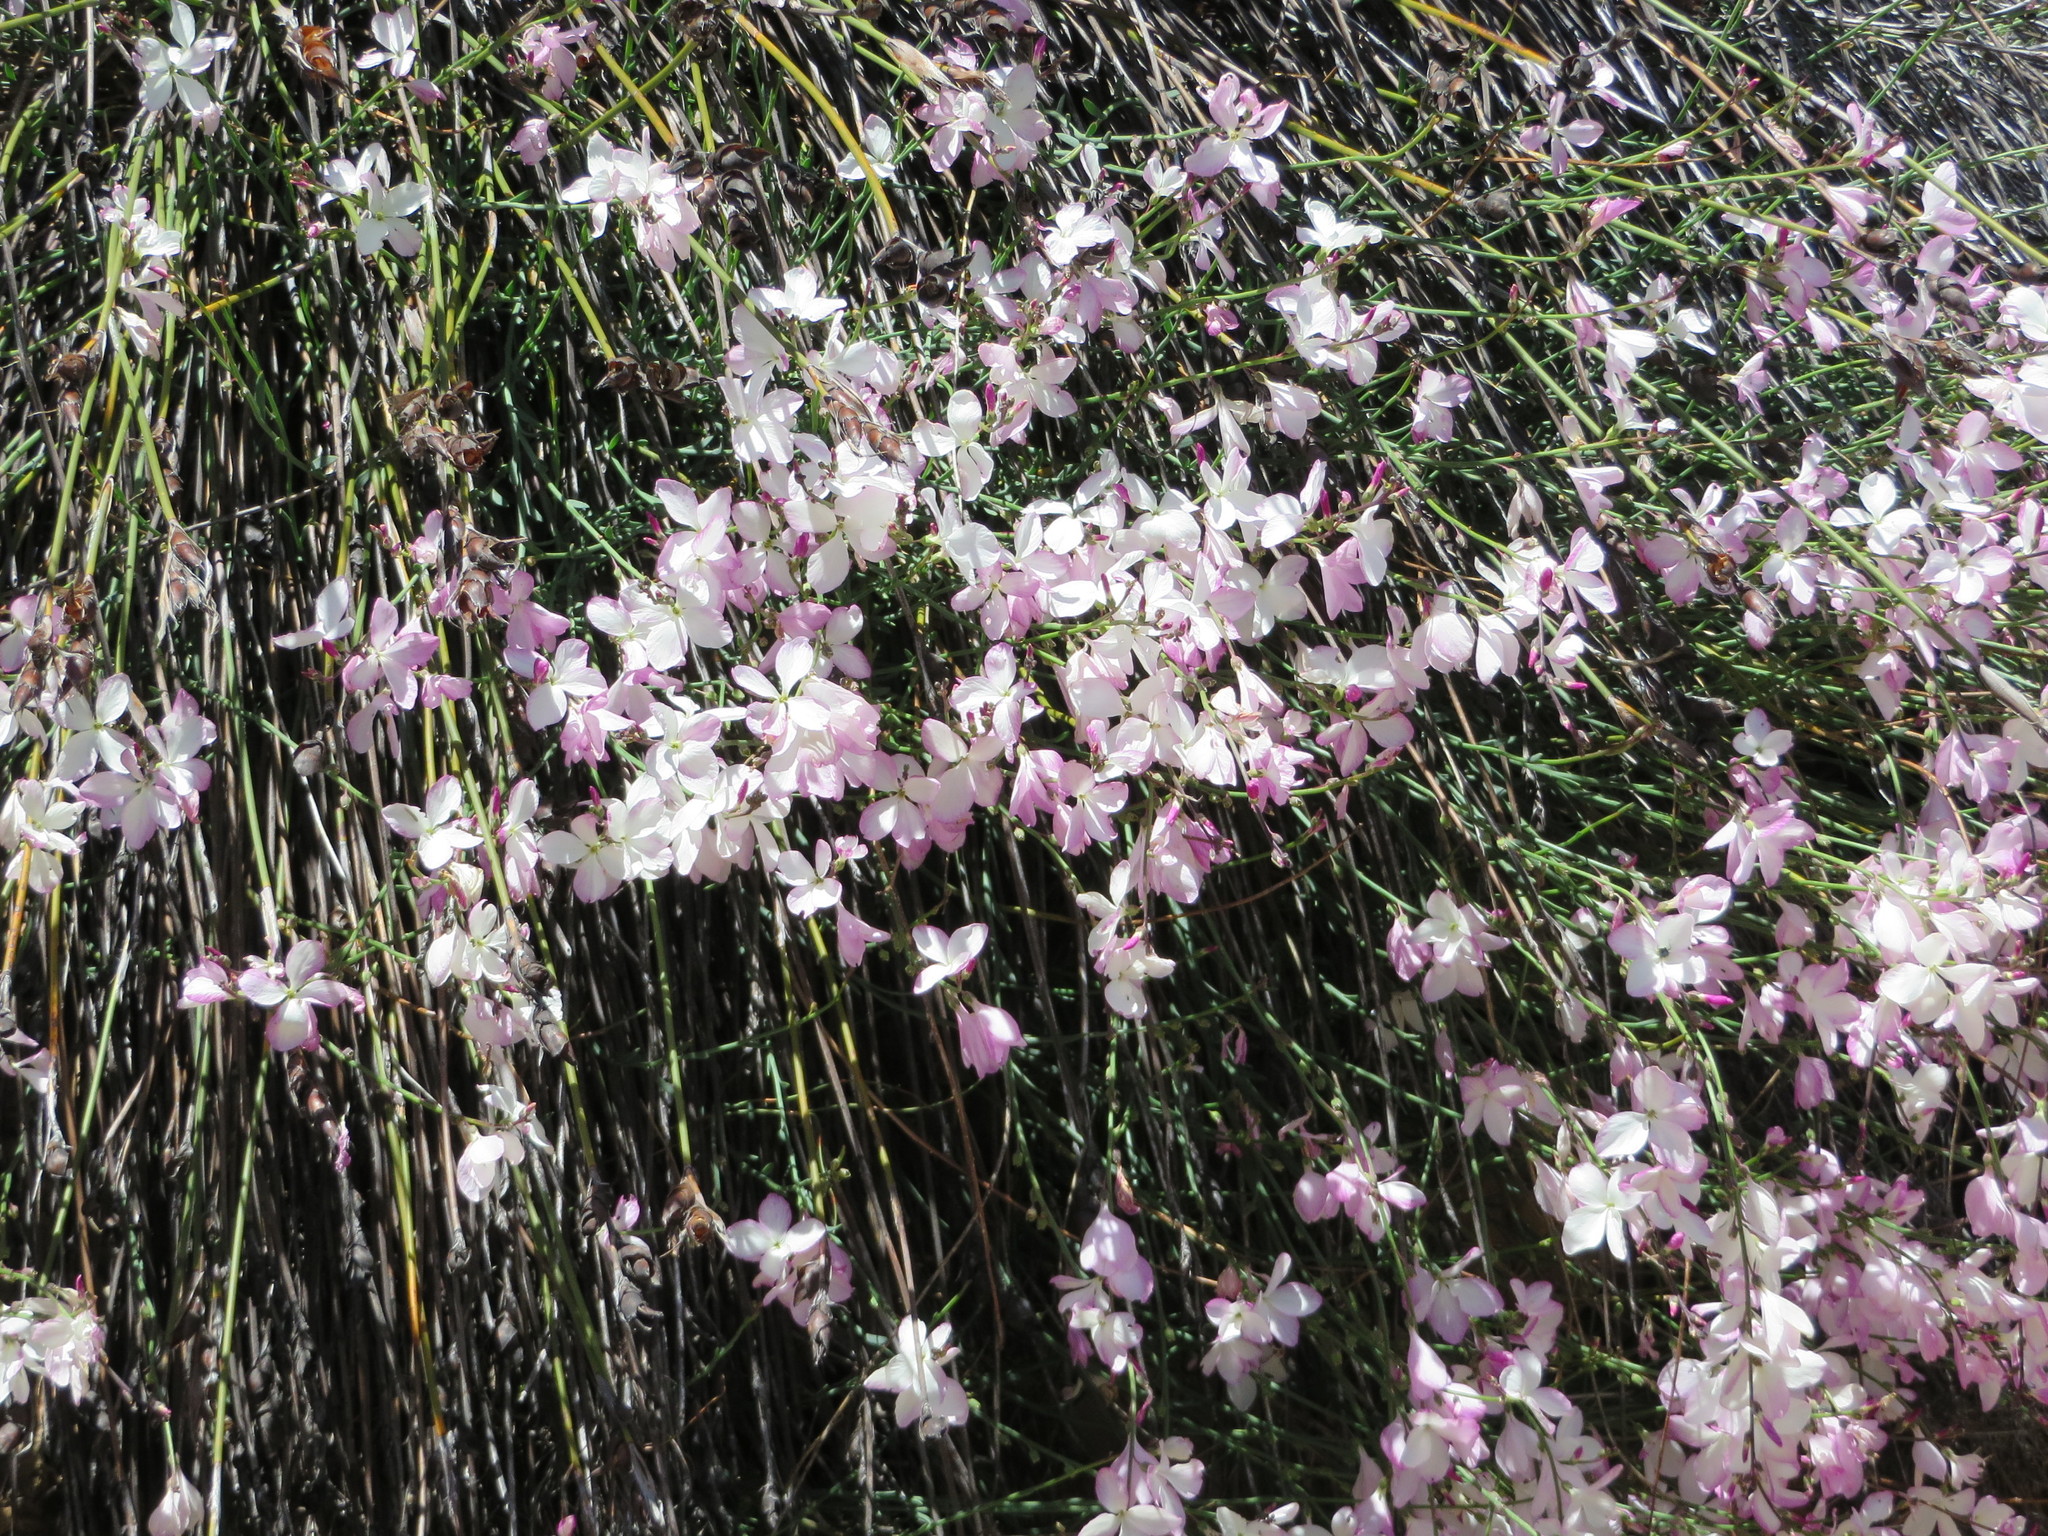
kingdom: Plantae
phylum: Tracheophyta
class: Magnoliopsida
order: Brassicales
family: Brassicaceae
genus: Heliophila
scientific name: Heliophila juncea
